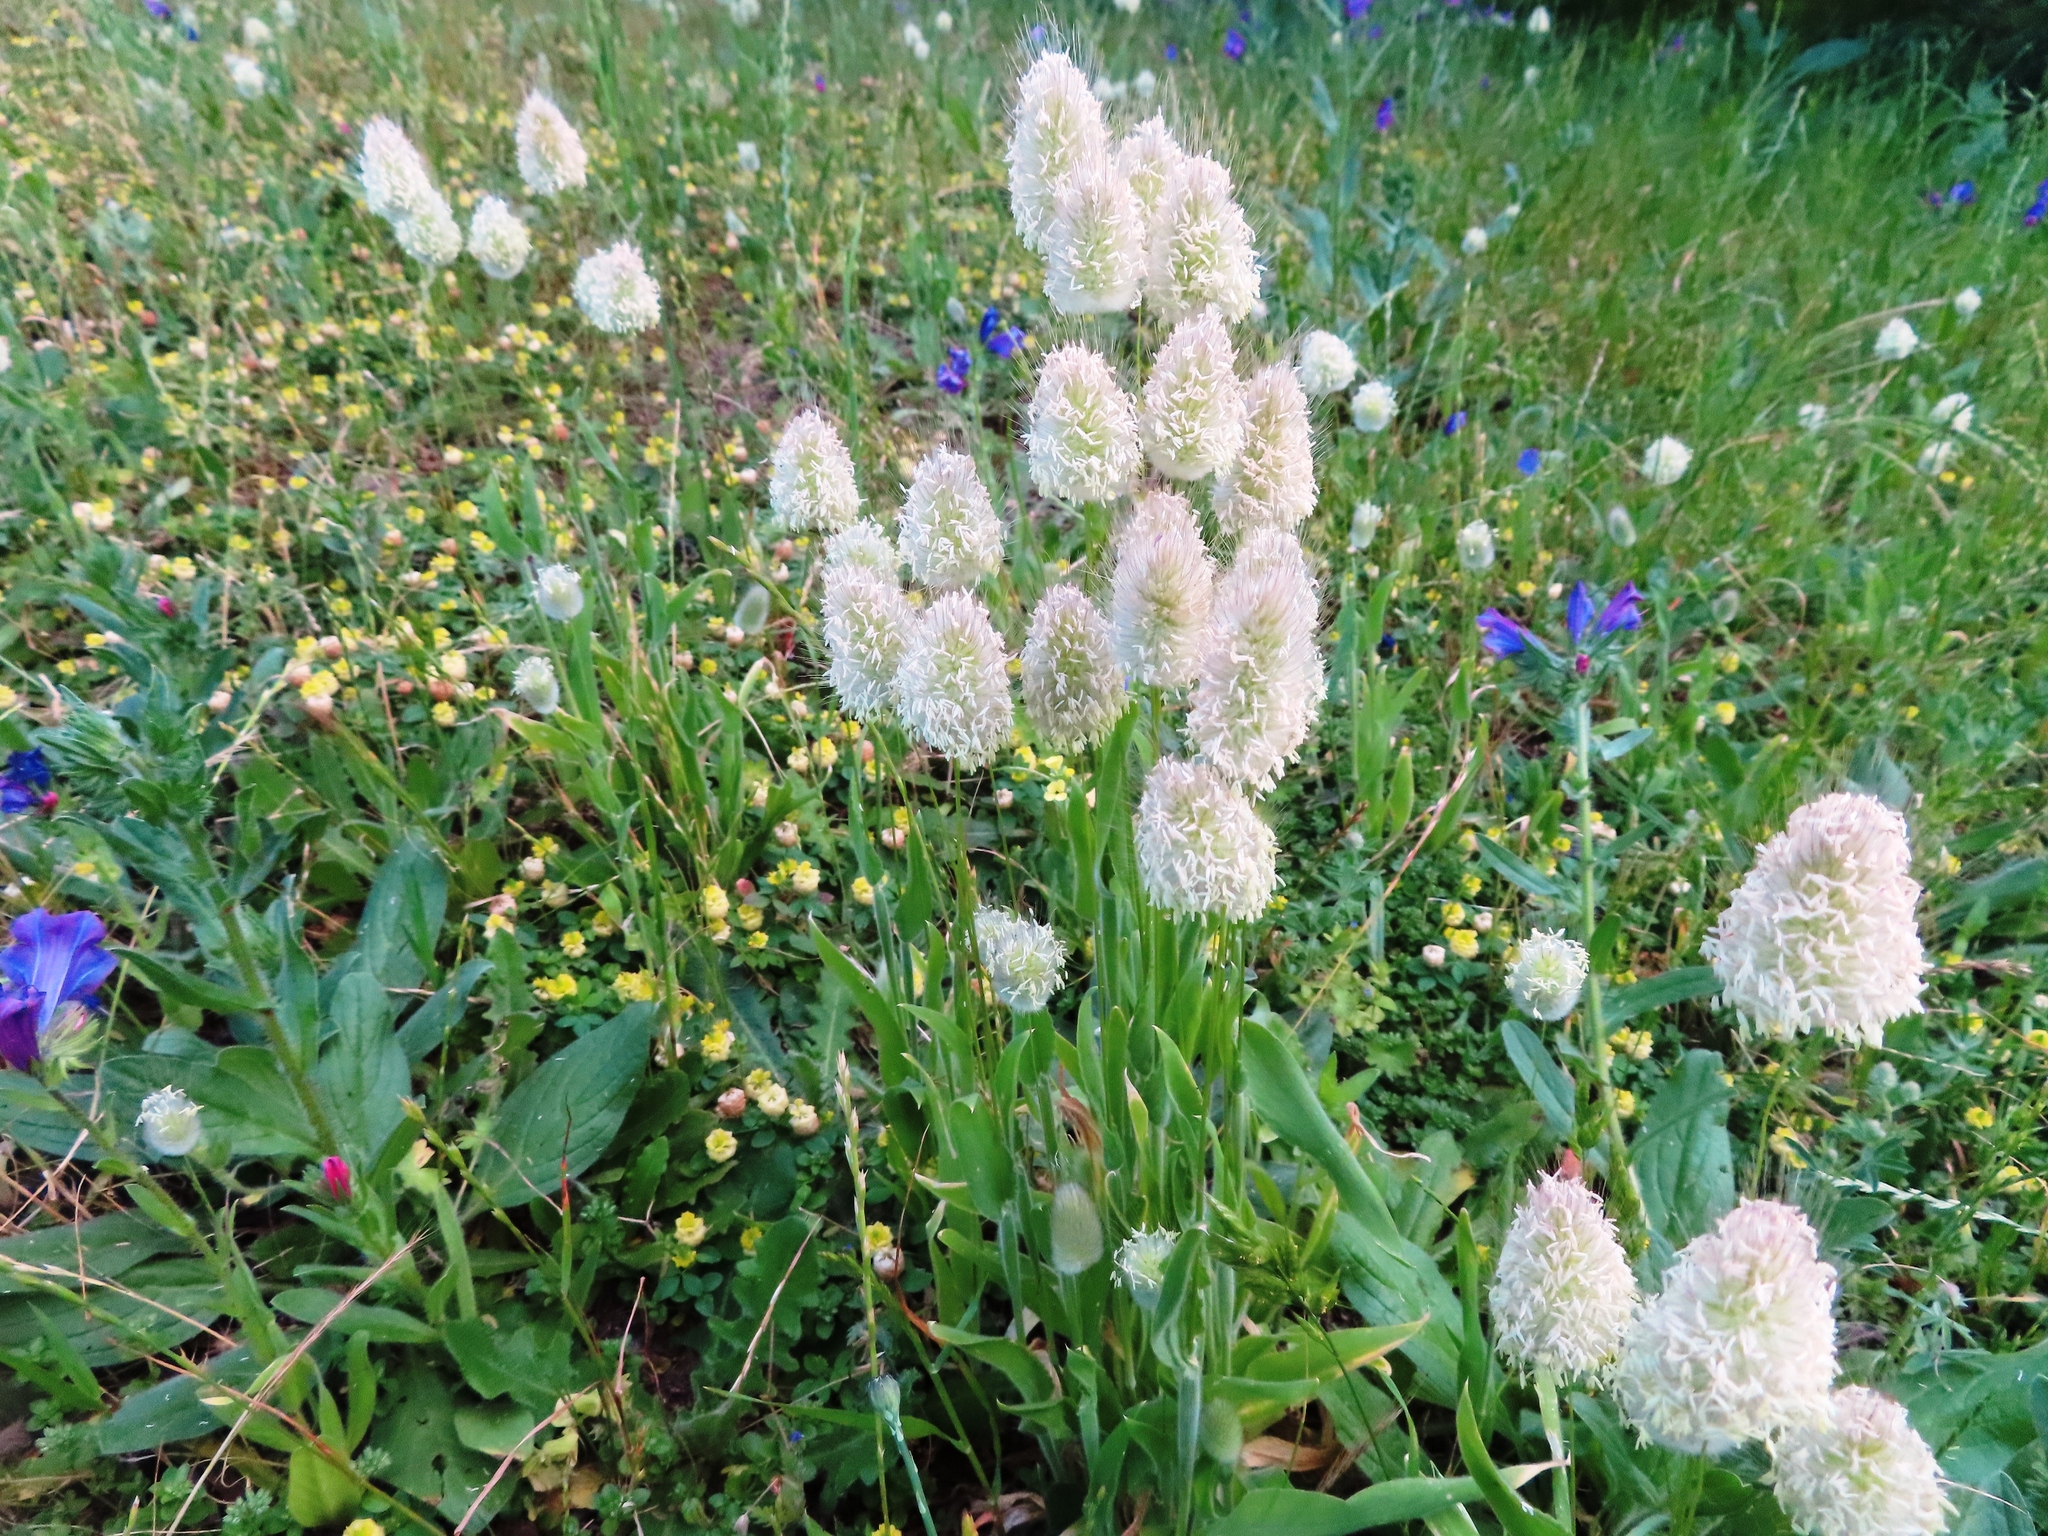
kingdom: Plantae
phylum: Tracheophyta
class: Liliopsida
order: Poales
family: Poaceae
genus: Lagurus
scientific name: Lagurus ovatus
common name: Hare's-tail
